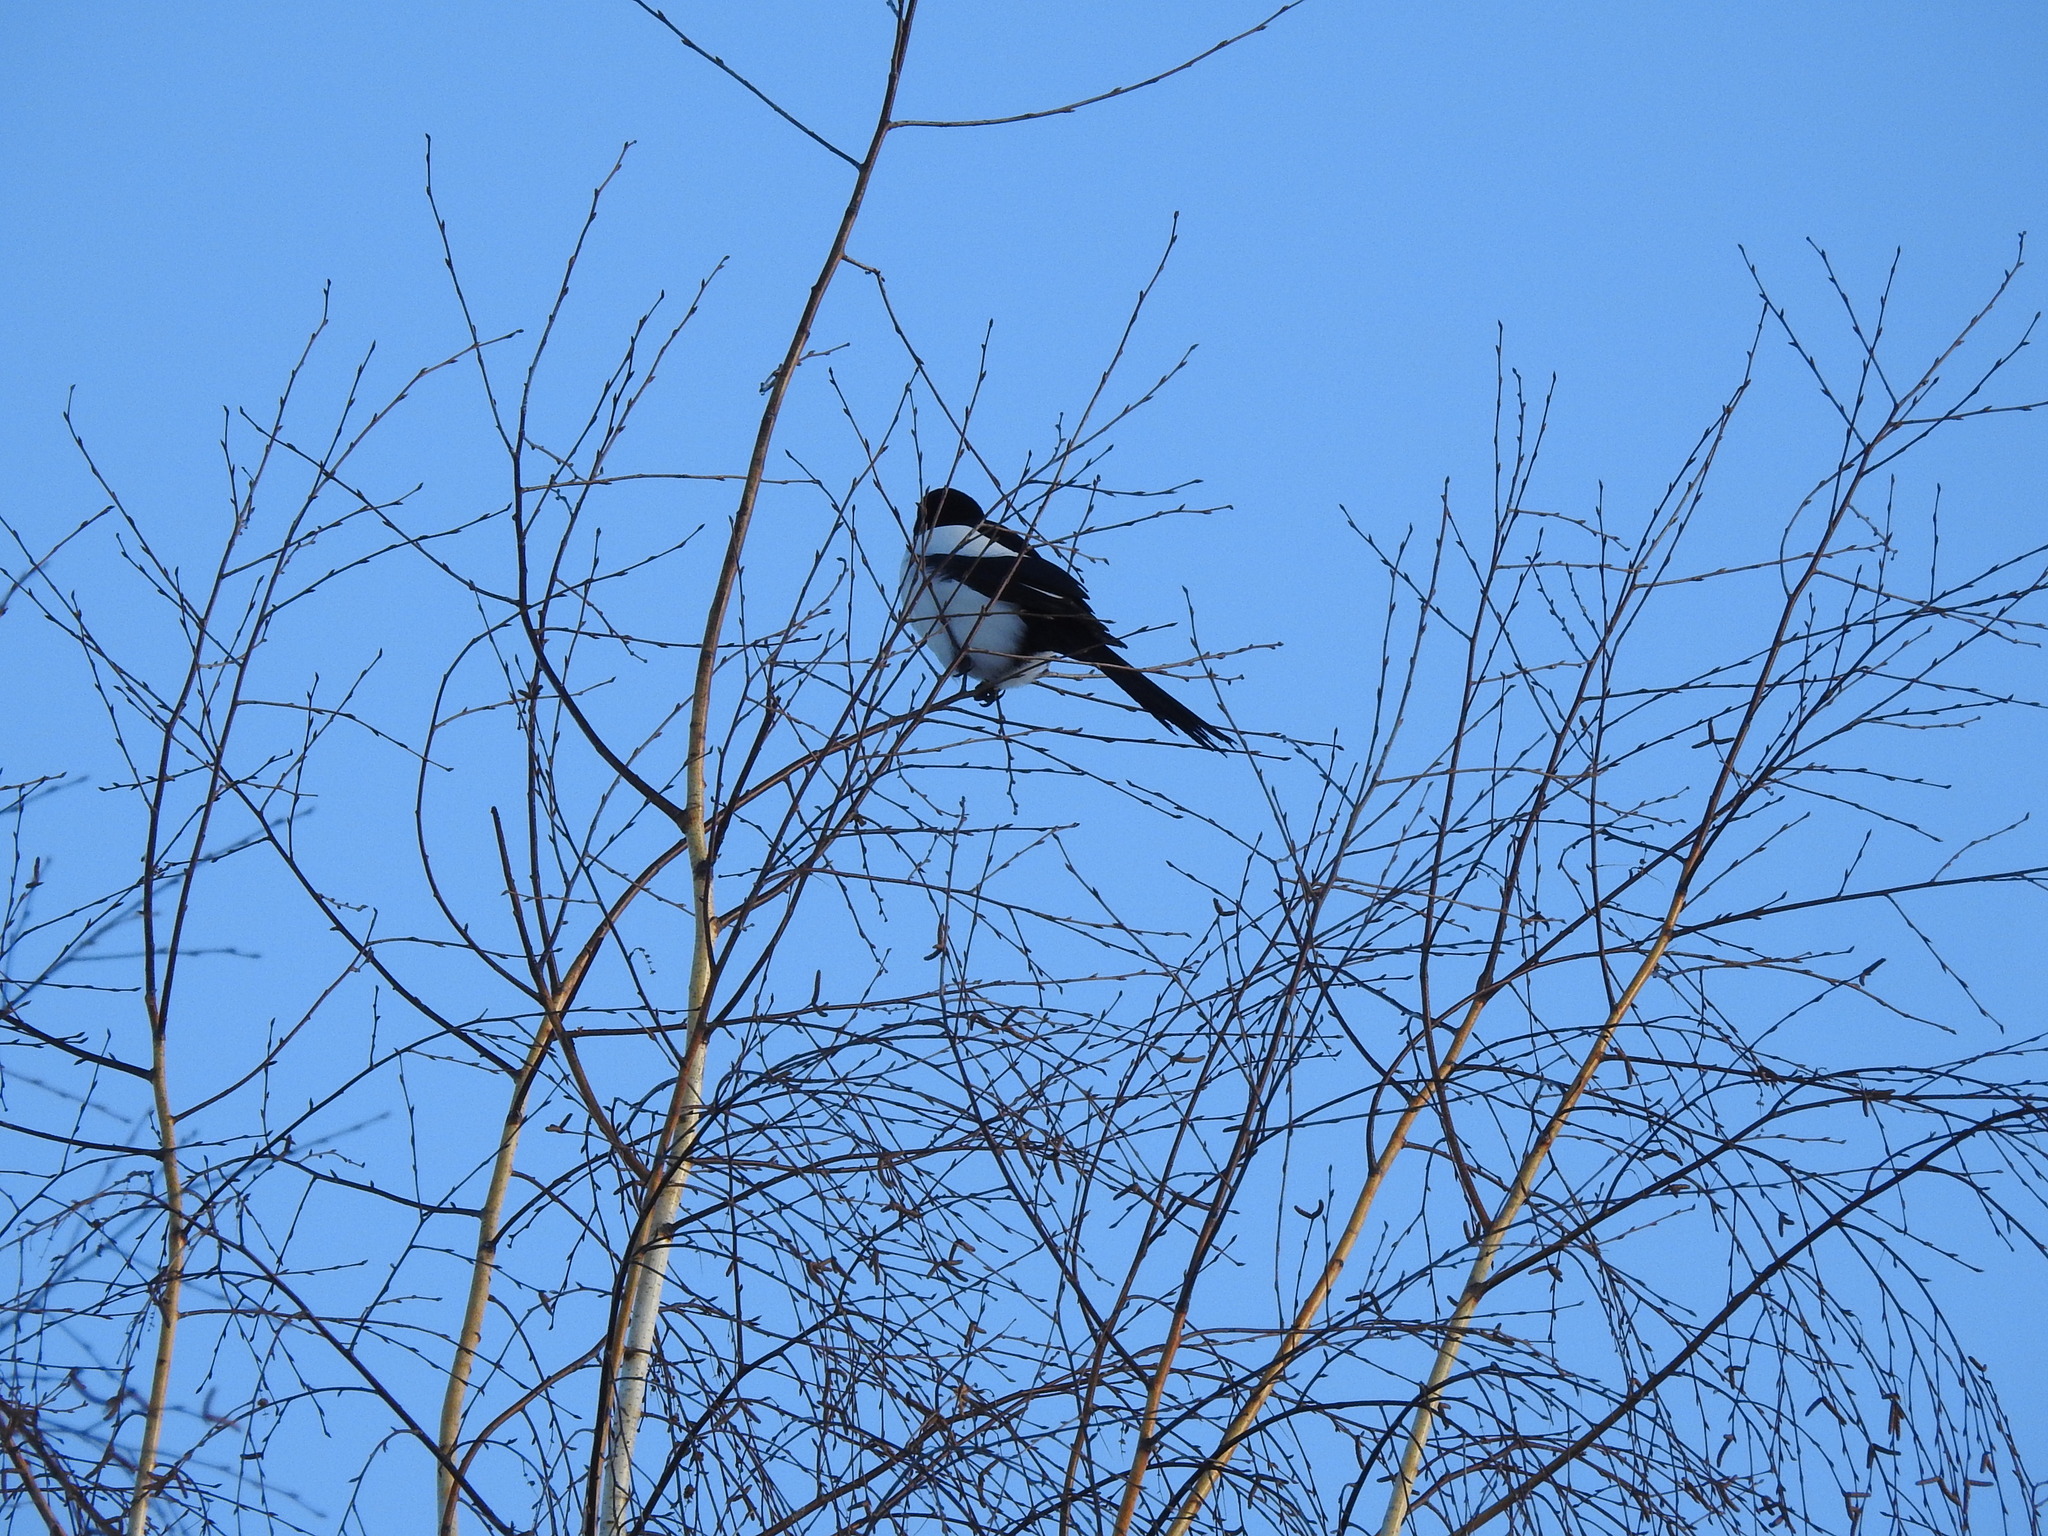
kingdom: Animalia
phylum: Chordata
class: Aves
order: Passeriformes
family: Corvidae
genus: Pica
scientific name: Pica pica
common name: Eurasian magpie
